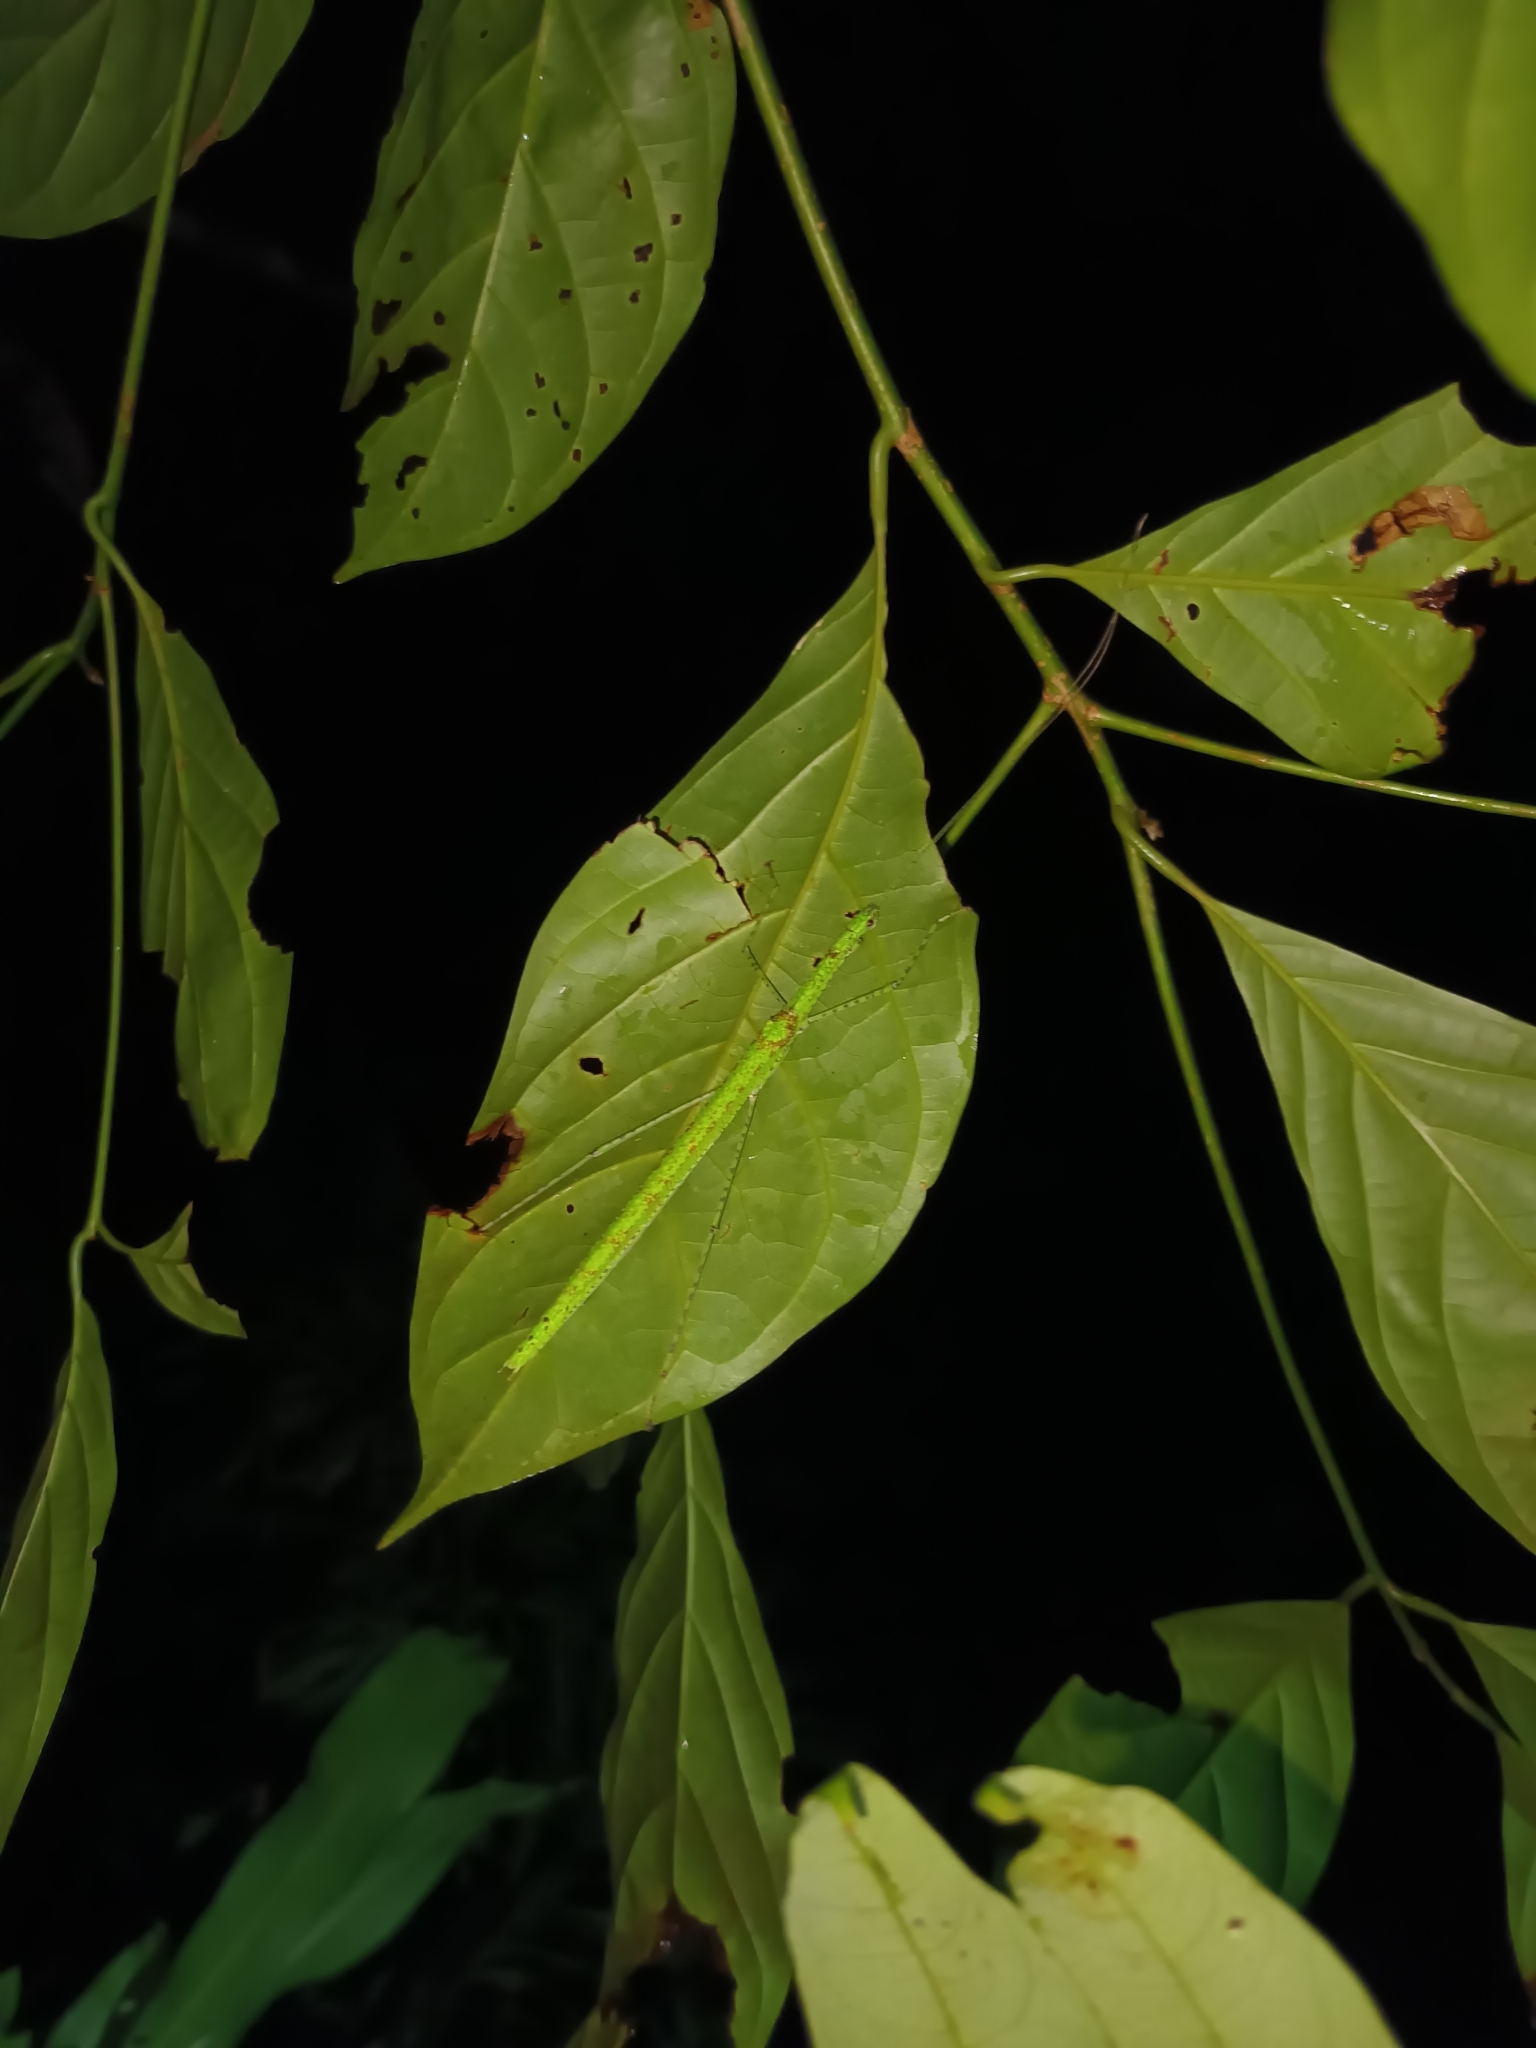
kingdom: Animalia
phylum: Arthropoda
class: Insecta
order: Phasmida
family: Lonchodidae
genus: Necroscia
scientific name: Necroscia confusa
